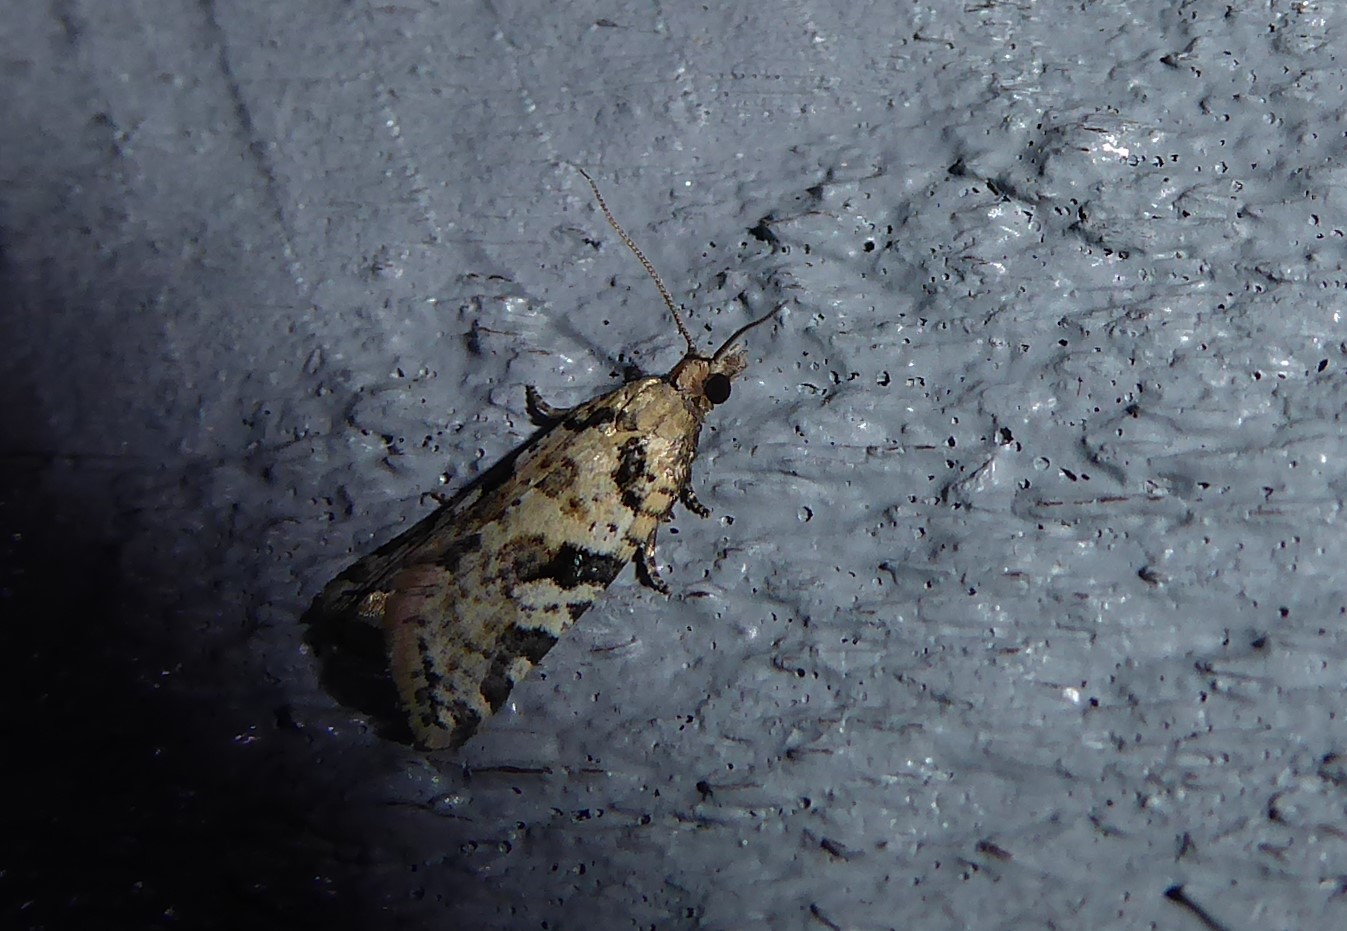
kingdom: Animalia
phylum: Arthropoda
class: Insecta
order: Lepidoptera
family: Tortricidae
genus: Capua
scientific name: Capua semiferana
